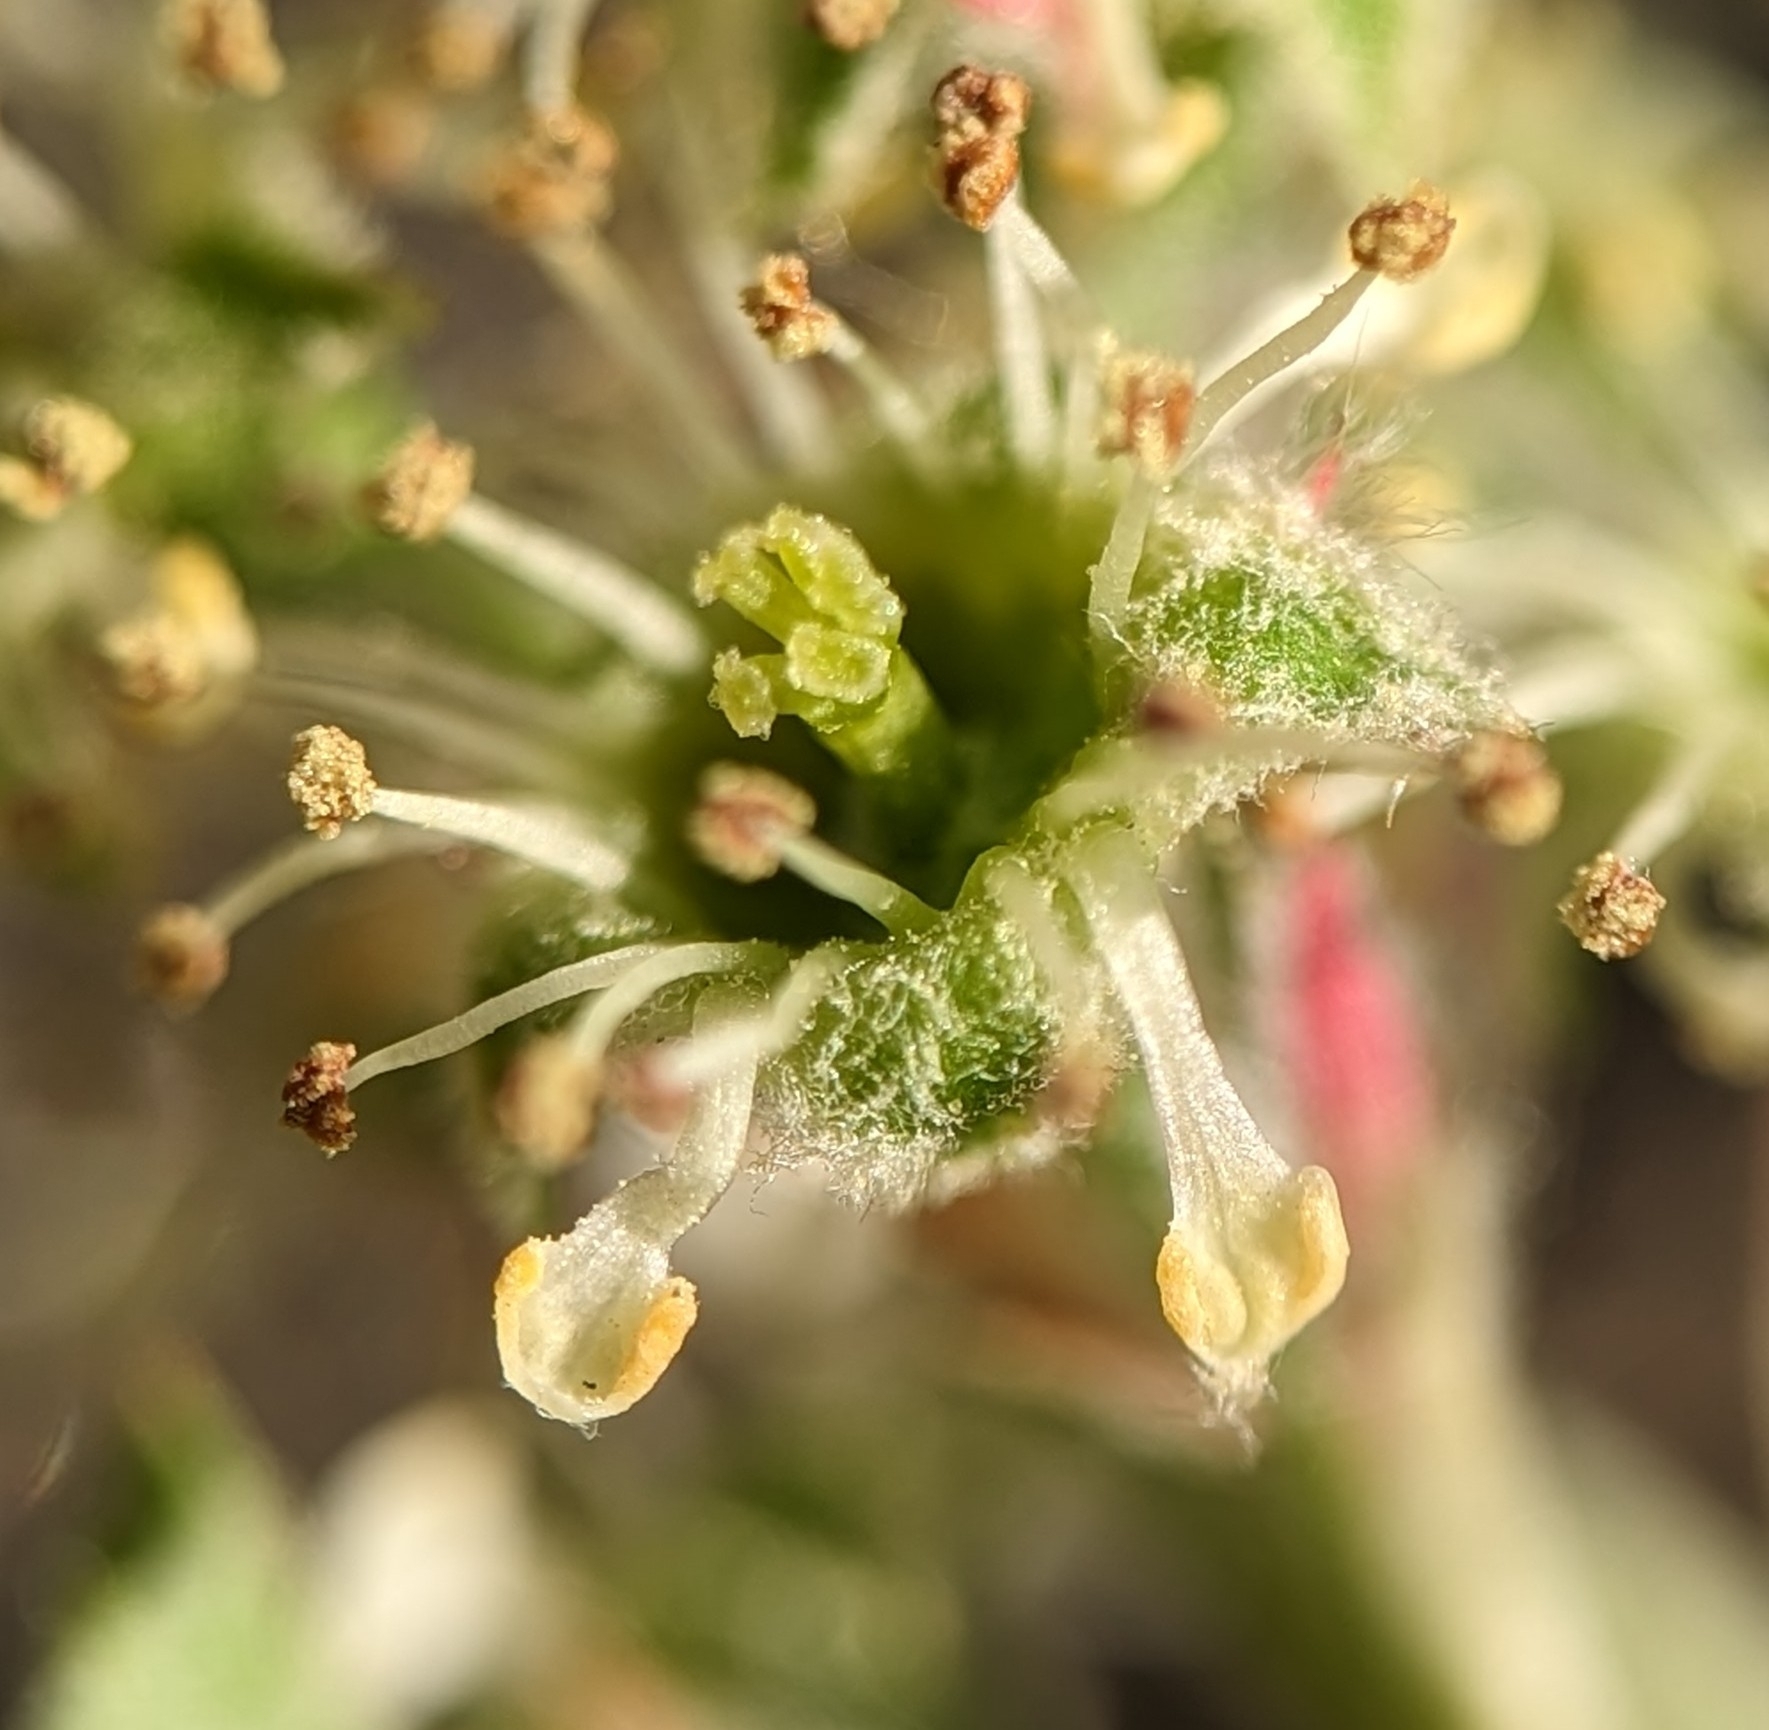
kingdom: Plantae
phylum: Tracheophyta
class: Magnoliopsida
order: Rosales
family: Rosaceae
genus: Amelanchier
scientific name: Amelanchier nantucketensis
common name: Nantucket shadbush
